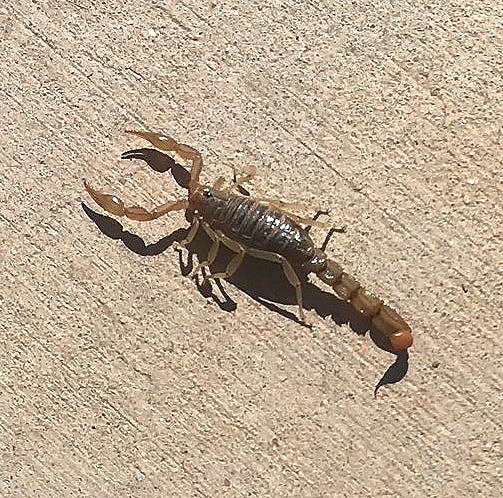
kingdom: Animalia
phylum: Arthropoda
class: Arachnida
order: Scorpiones
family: Vaejovidae
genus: Paravaejovis
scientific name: Paravaejovis spinigerus
